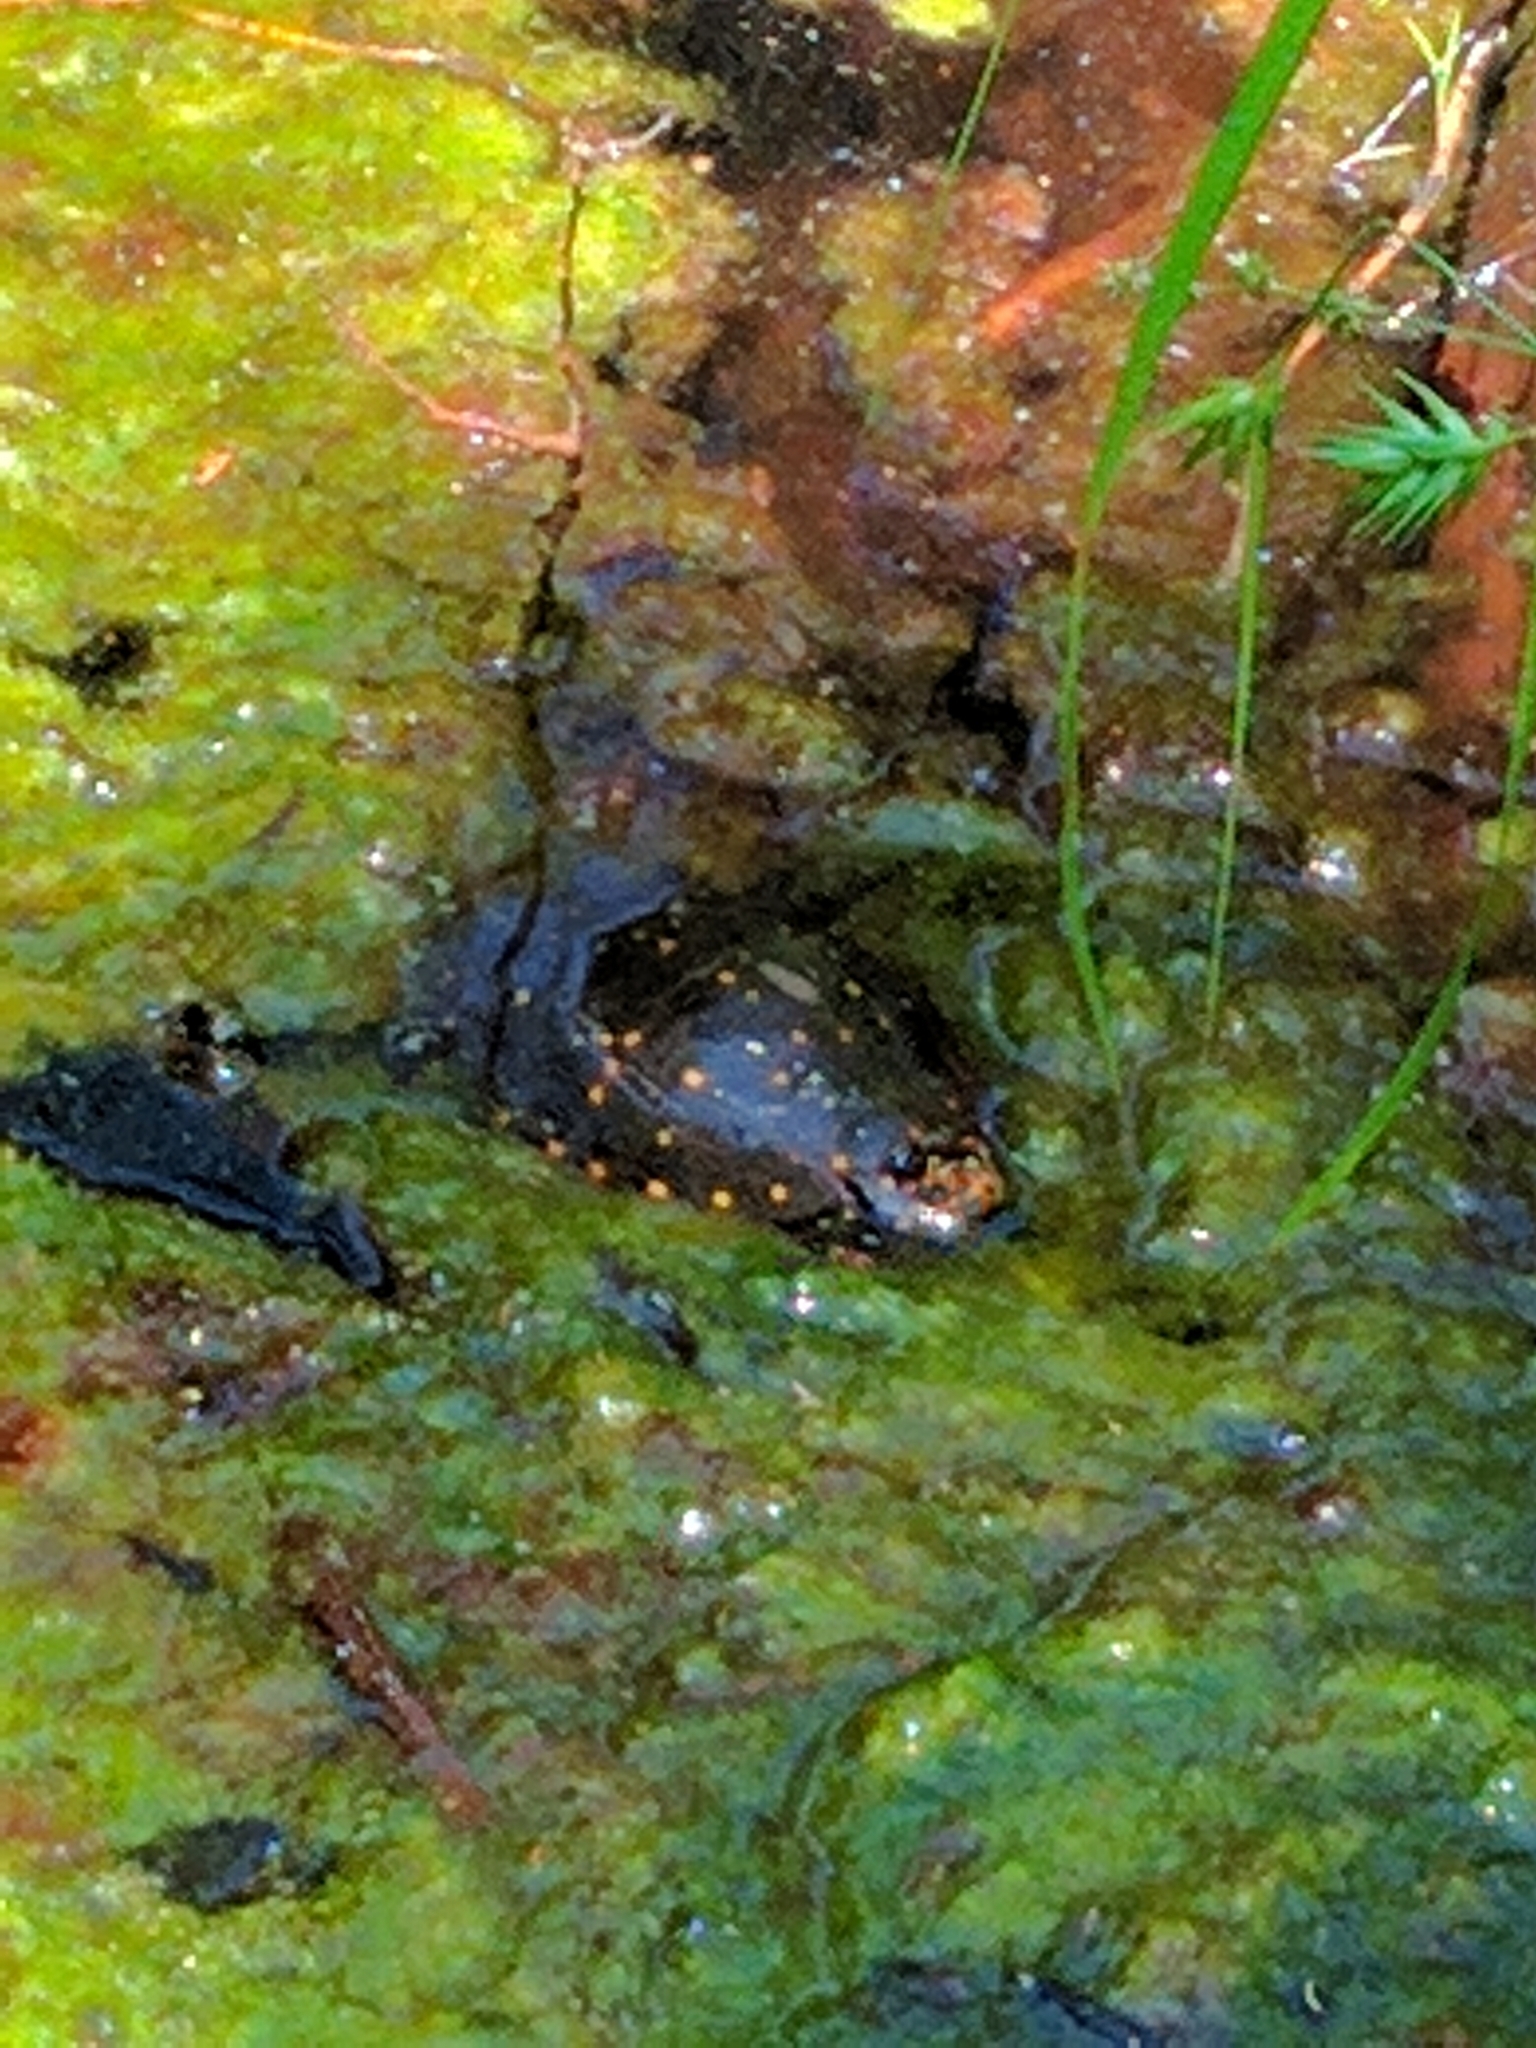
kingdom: Animalia
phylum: Chordata
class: Testudines
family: Emydidae
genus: Clemmys
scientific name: Clemmys guttata
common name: Spotted turtle
